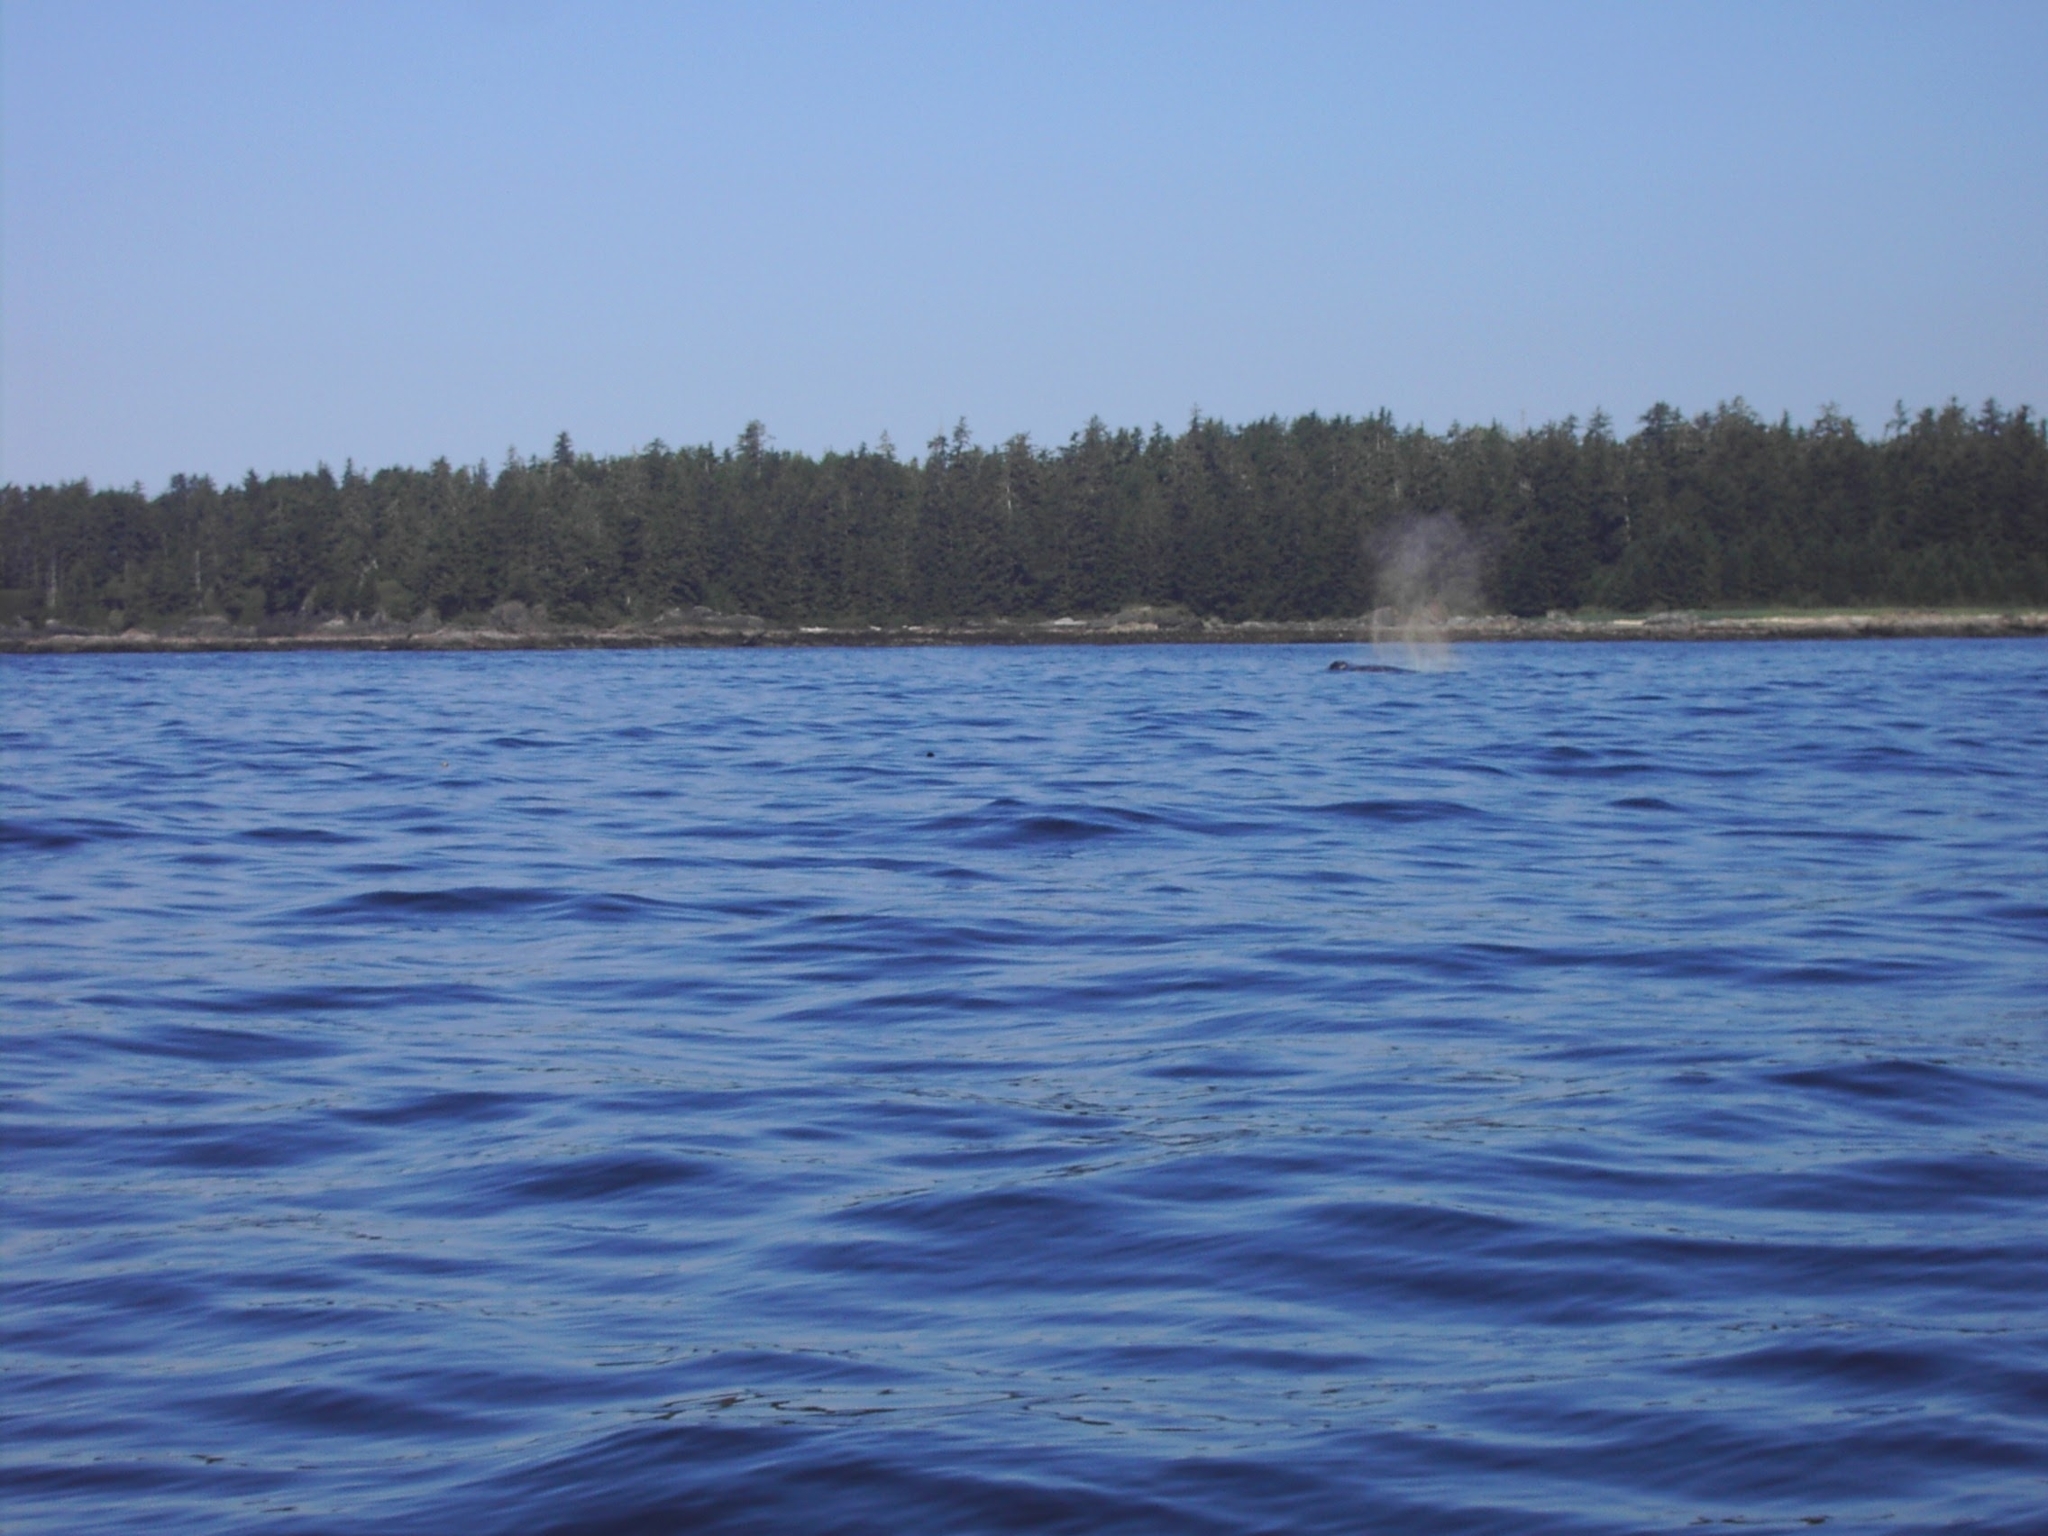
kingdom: Animalia
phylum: Chordata
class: Mammalia
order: Cetacea
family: Eschrichtiidae
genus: Eschrichtius
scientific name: Eschrichtius robustus
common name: Gray whale
